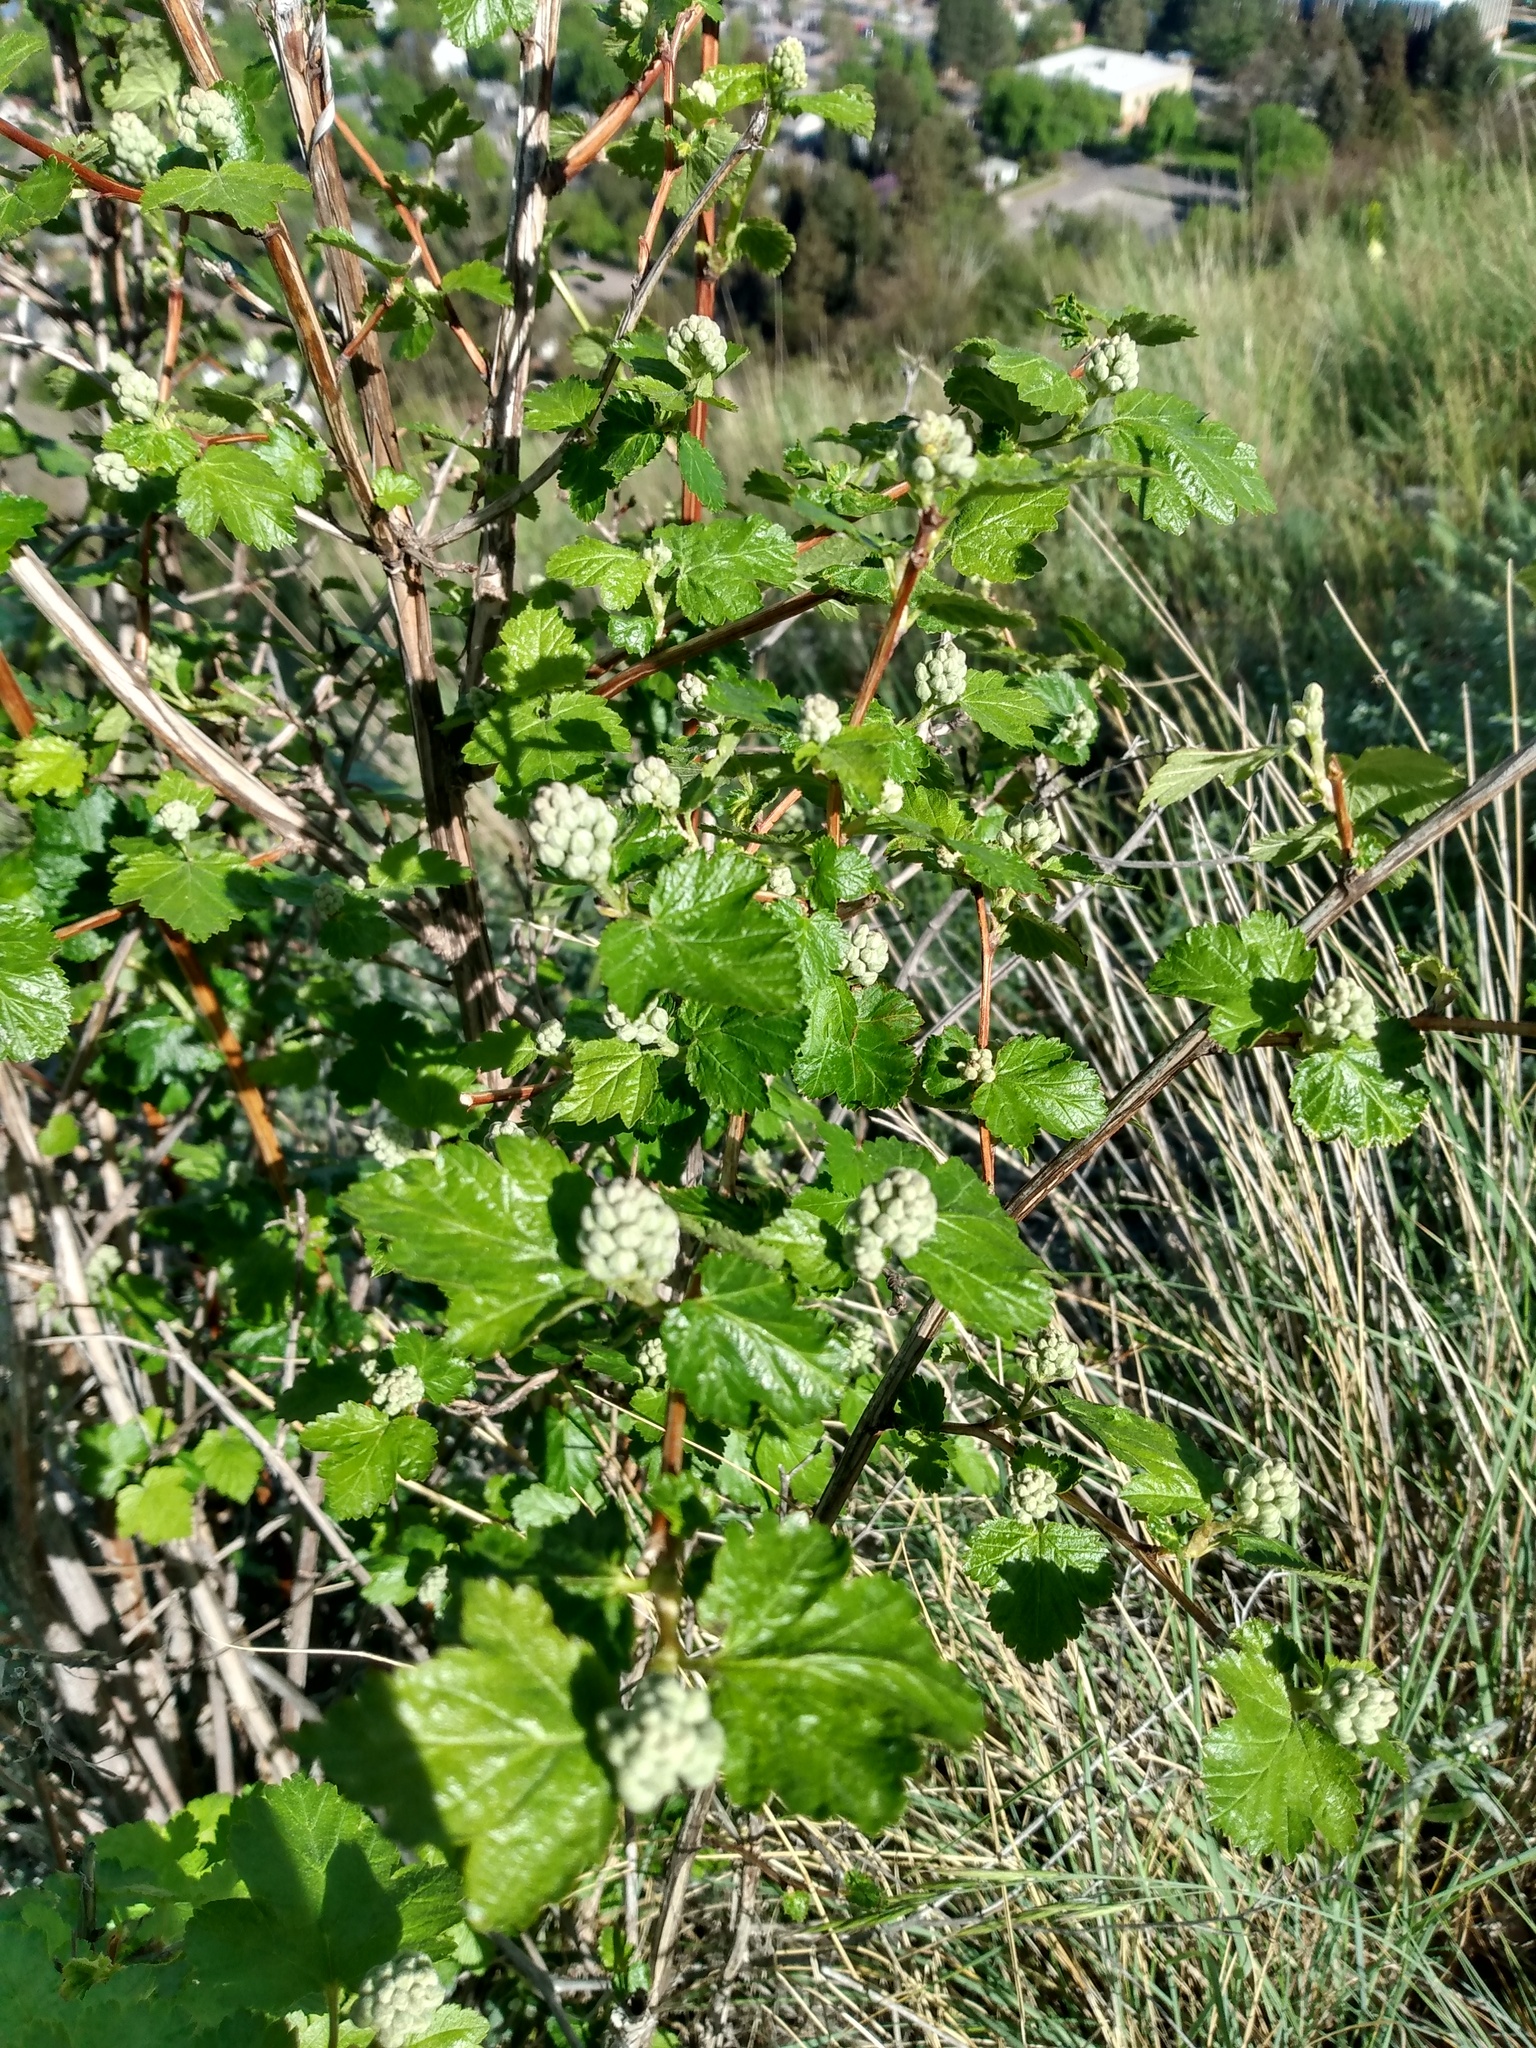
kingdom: Plantae
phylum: Tracheophyta
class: Magnoliopsida
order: Rosales
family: Rosaceae
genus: Physocarpus
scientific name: Physocarpus malvaceus
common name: Mallow ninebark
